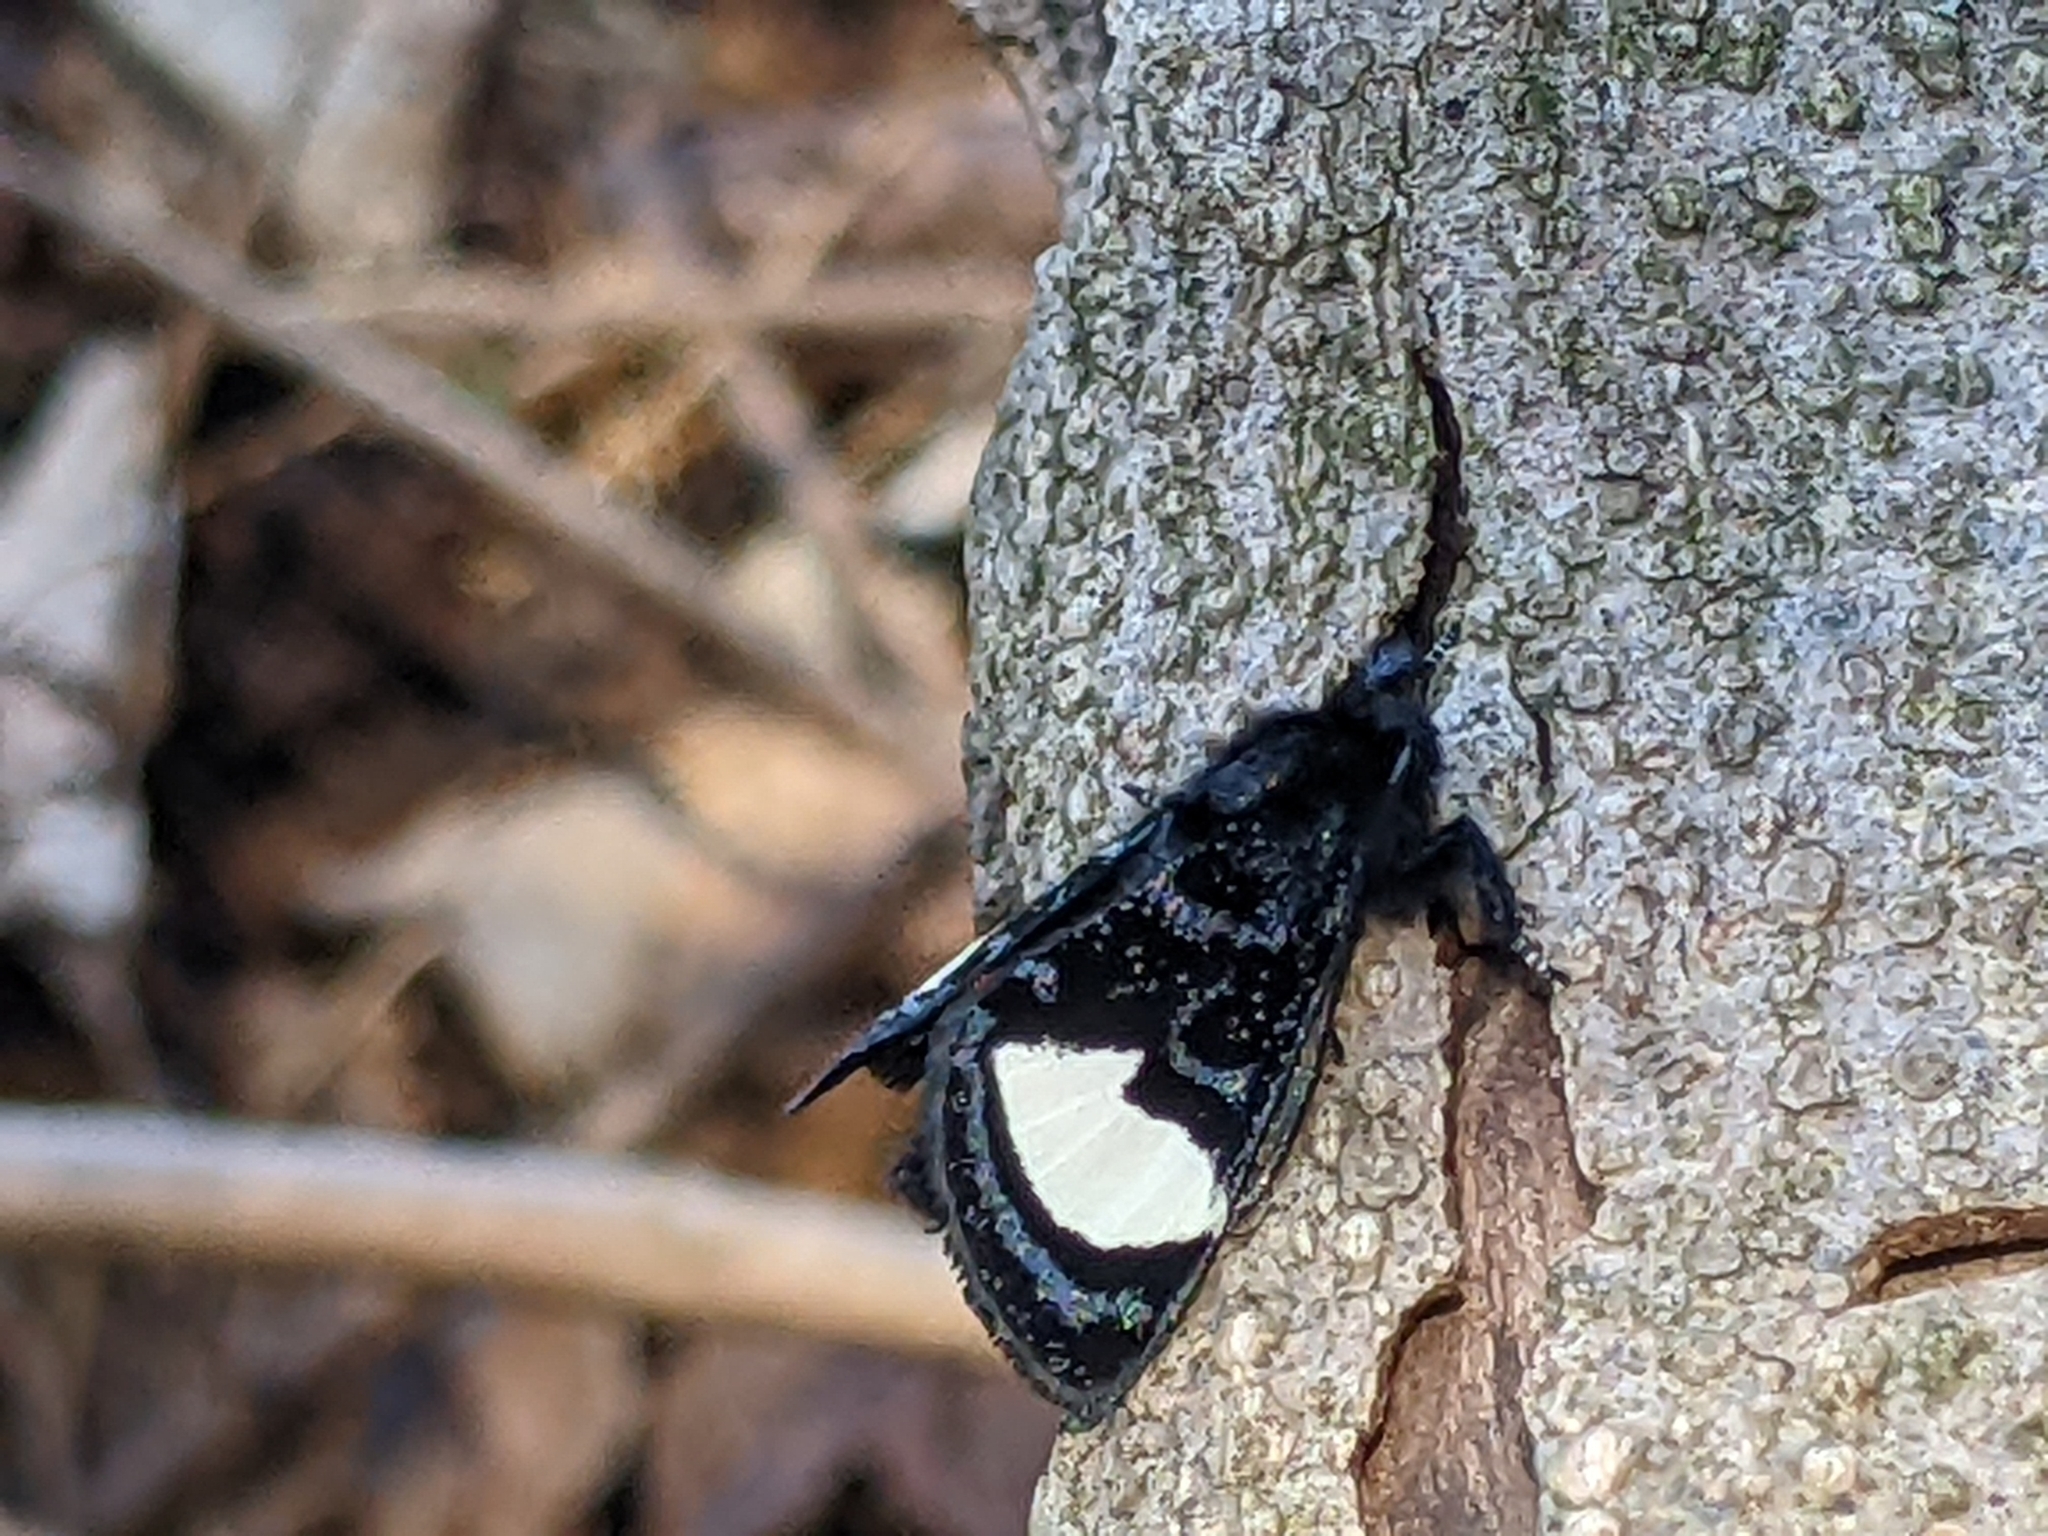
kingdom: Animalia
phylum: Arthropoda
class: Insecta
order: Lepidoptera
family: Noctuidae
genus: Psychomorpha
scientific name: Psychomorpha epimenis
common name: Grapevine epimenis moth
